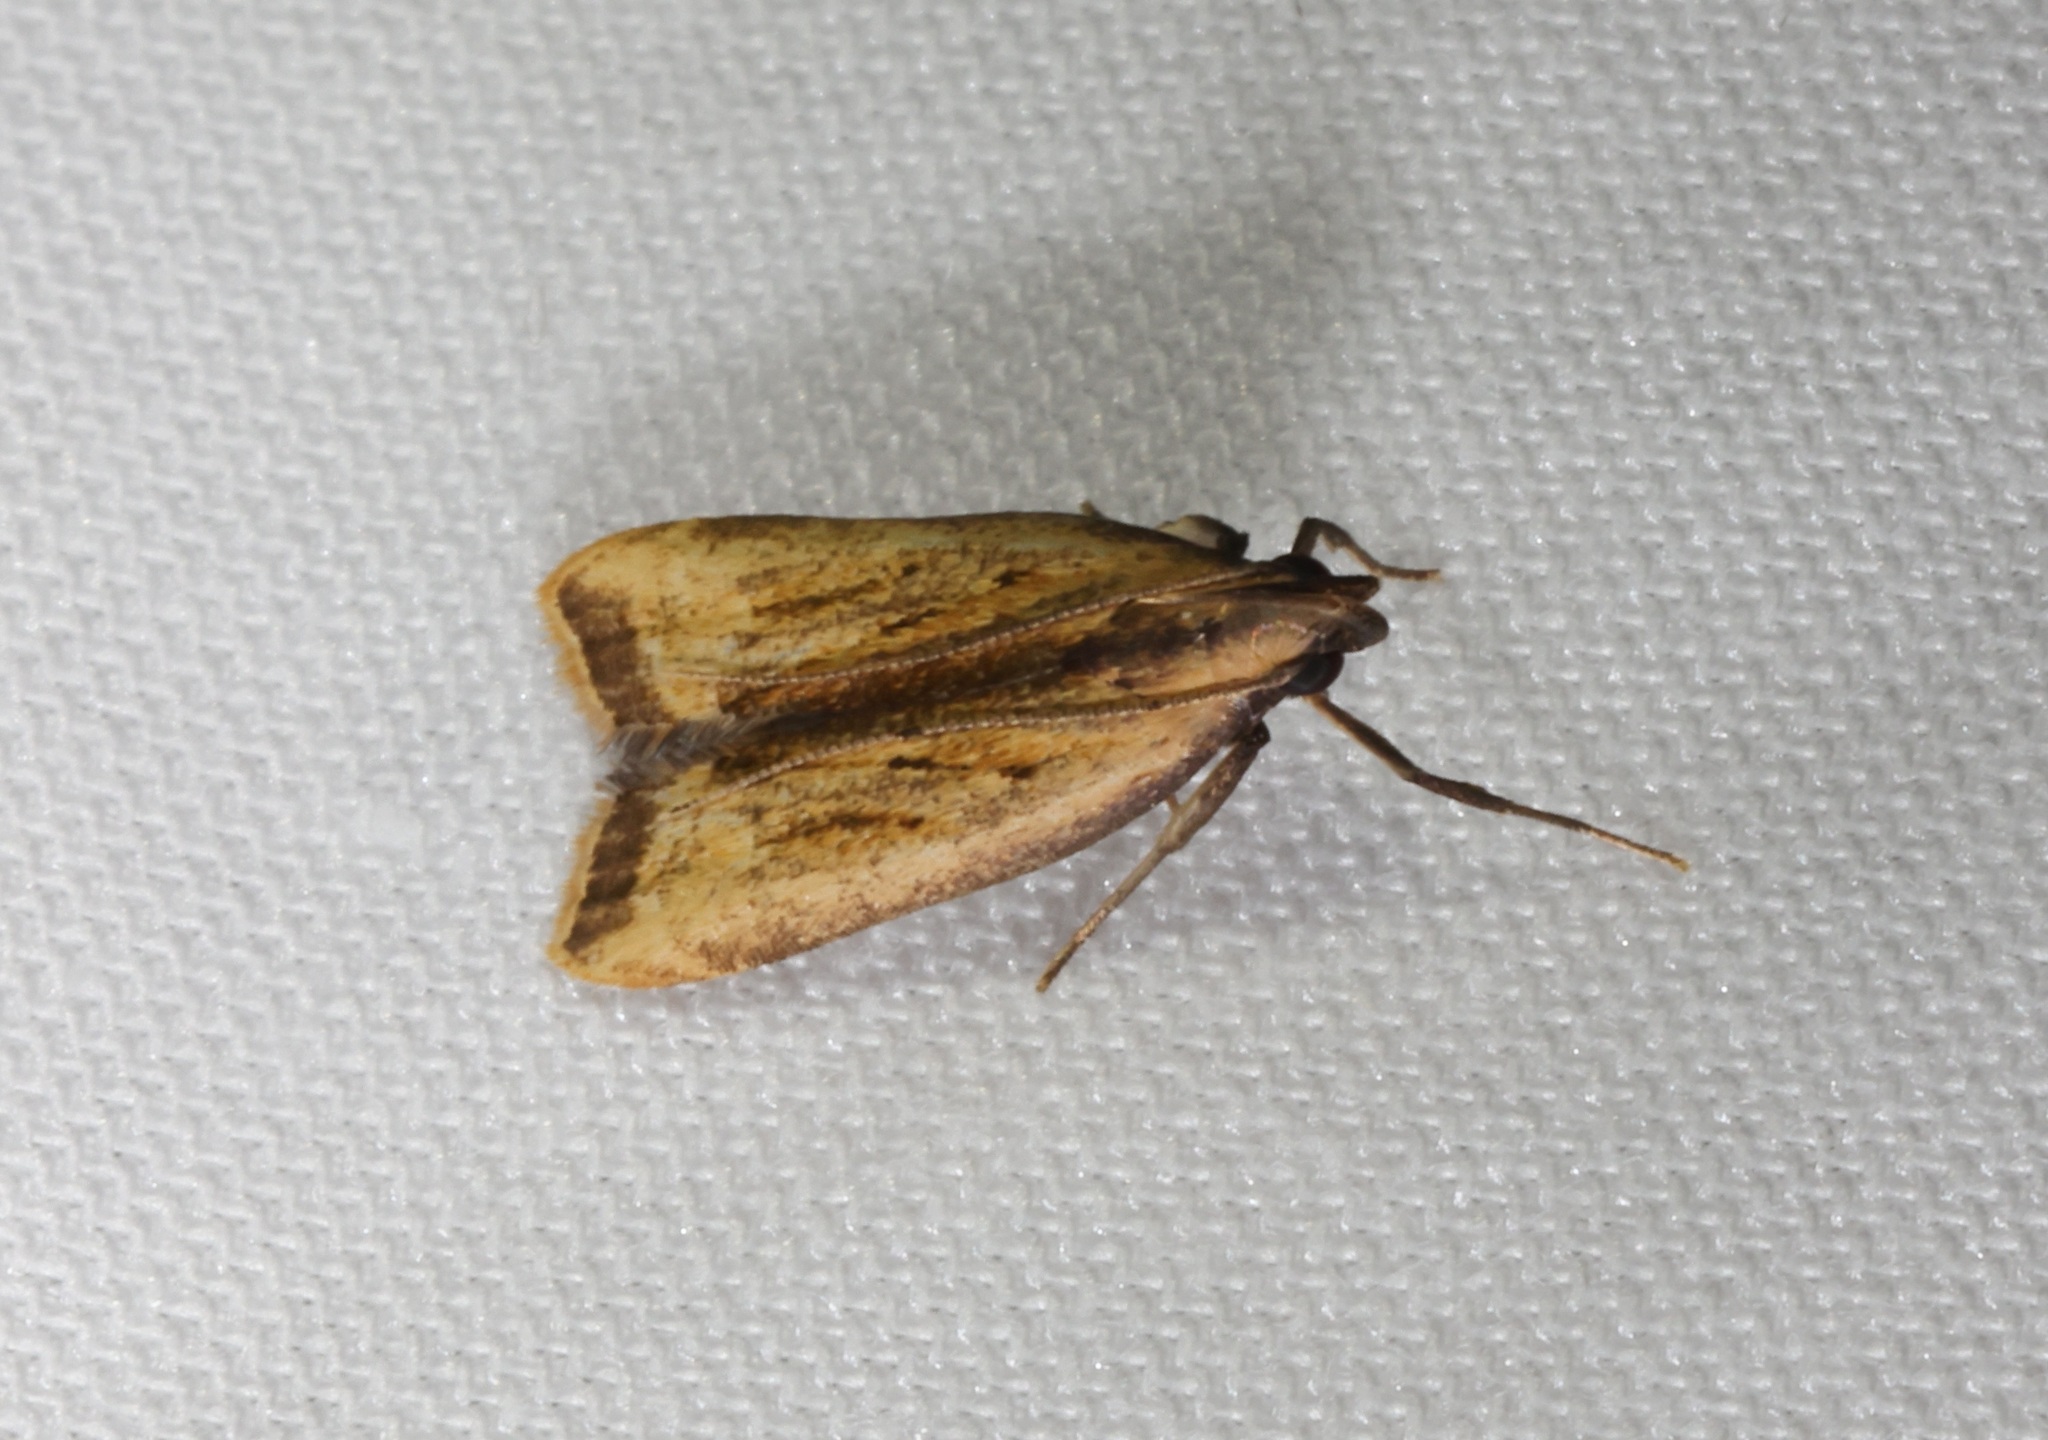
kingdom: Animalia
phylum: Arthropoda
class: Insecta
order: Lepidoptera
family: Gelechiidae
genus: Dichomeris
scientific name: Dichomeris parvisexafurca
